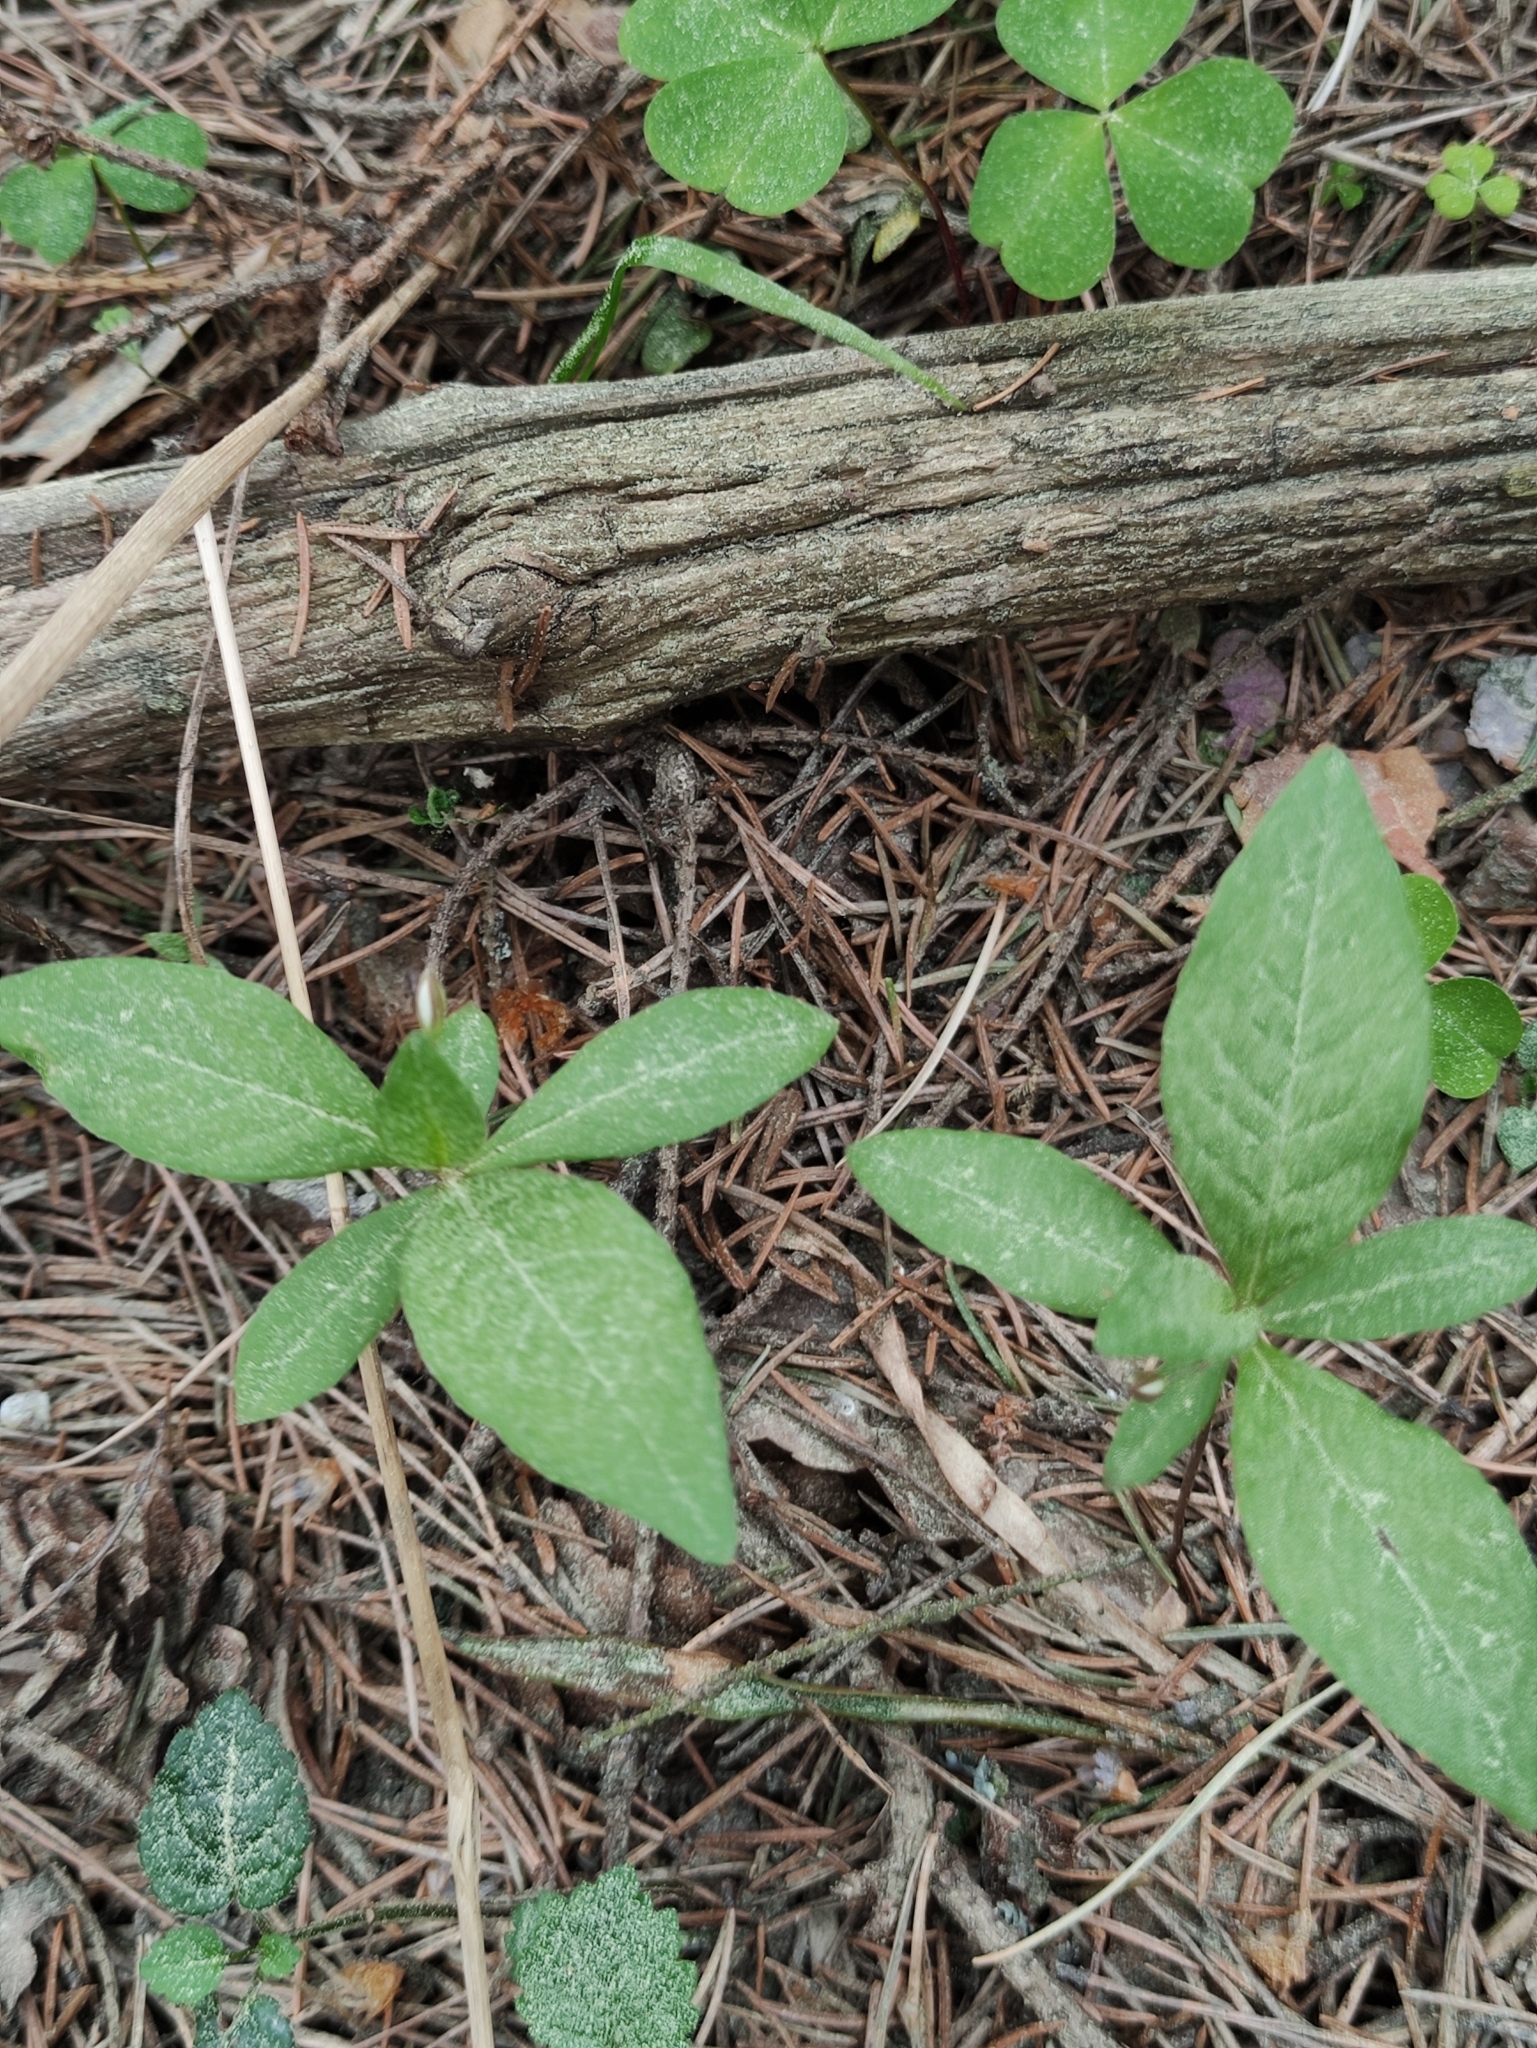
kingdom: Plantae
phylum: Tracheophyta
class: Magnoliopsida
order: Ericales
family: Primulaceae
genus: Lysimachia
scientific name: Lysimachia europaea
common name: Arctic starflower
